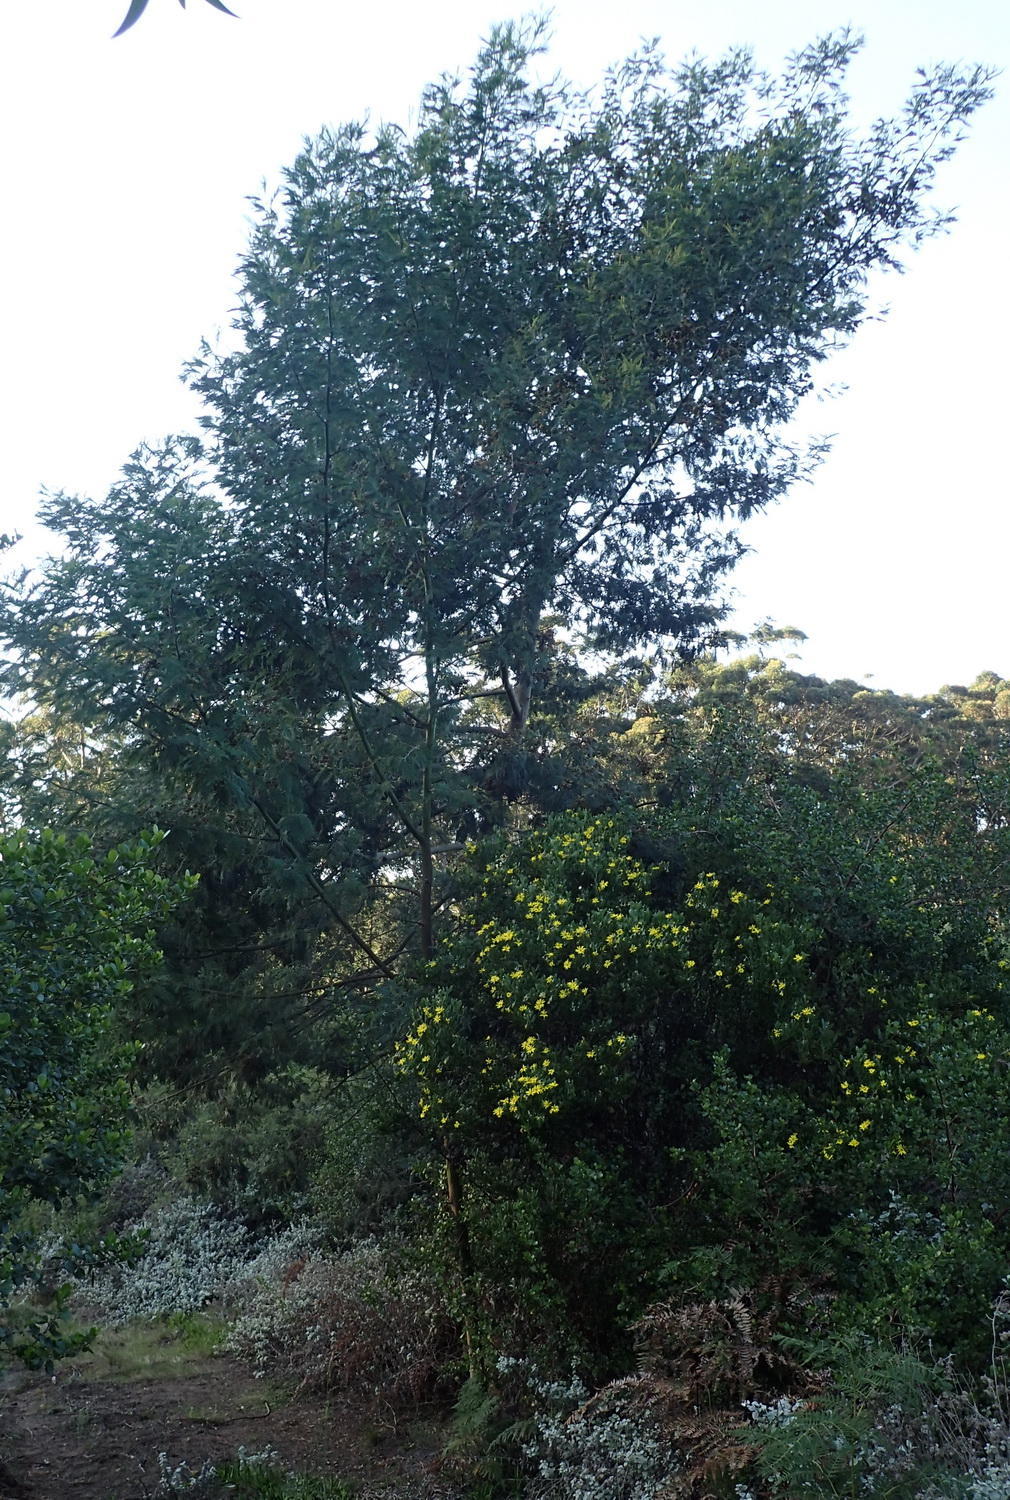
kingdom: Plantae
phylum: Tracheophyta
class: Magnoliopsida
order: Fabales
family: Fabaceae
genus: Acacia
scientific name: Acacia mearnsii
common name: Black wattle
